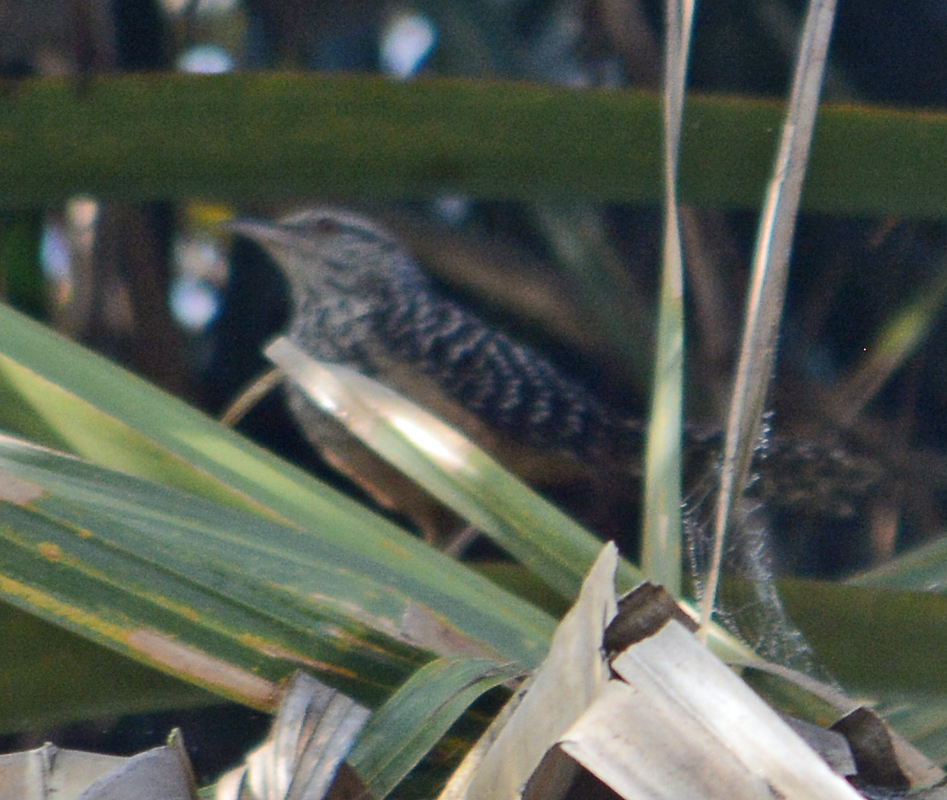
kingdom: Animalia
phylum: Chordata
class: Aves
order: Passeriformes
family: Troglodytidae
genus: Campylorhynchus
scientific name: Campylorhynchus zonatus
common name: Band-backed wren
